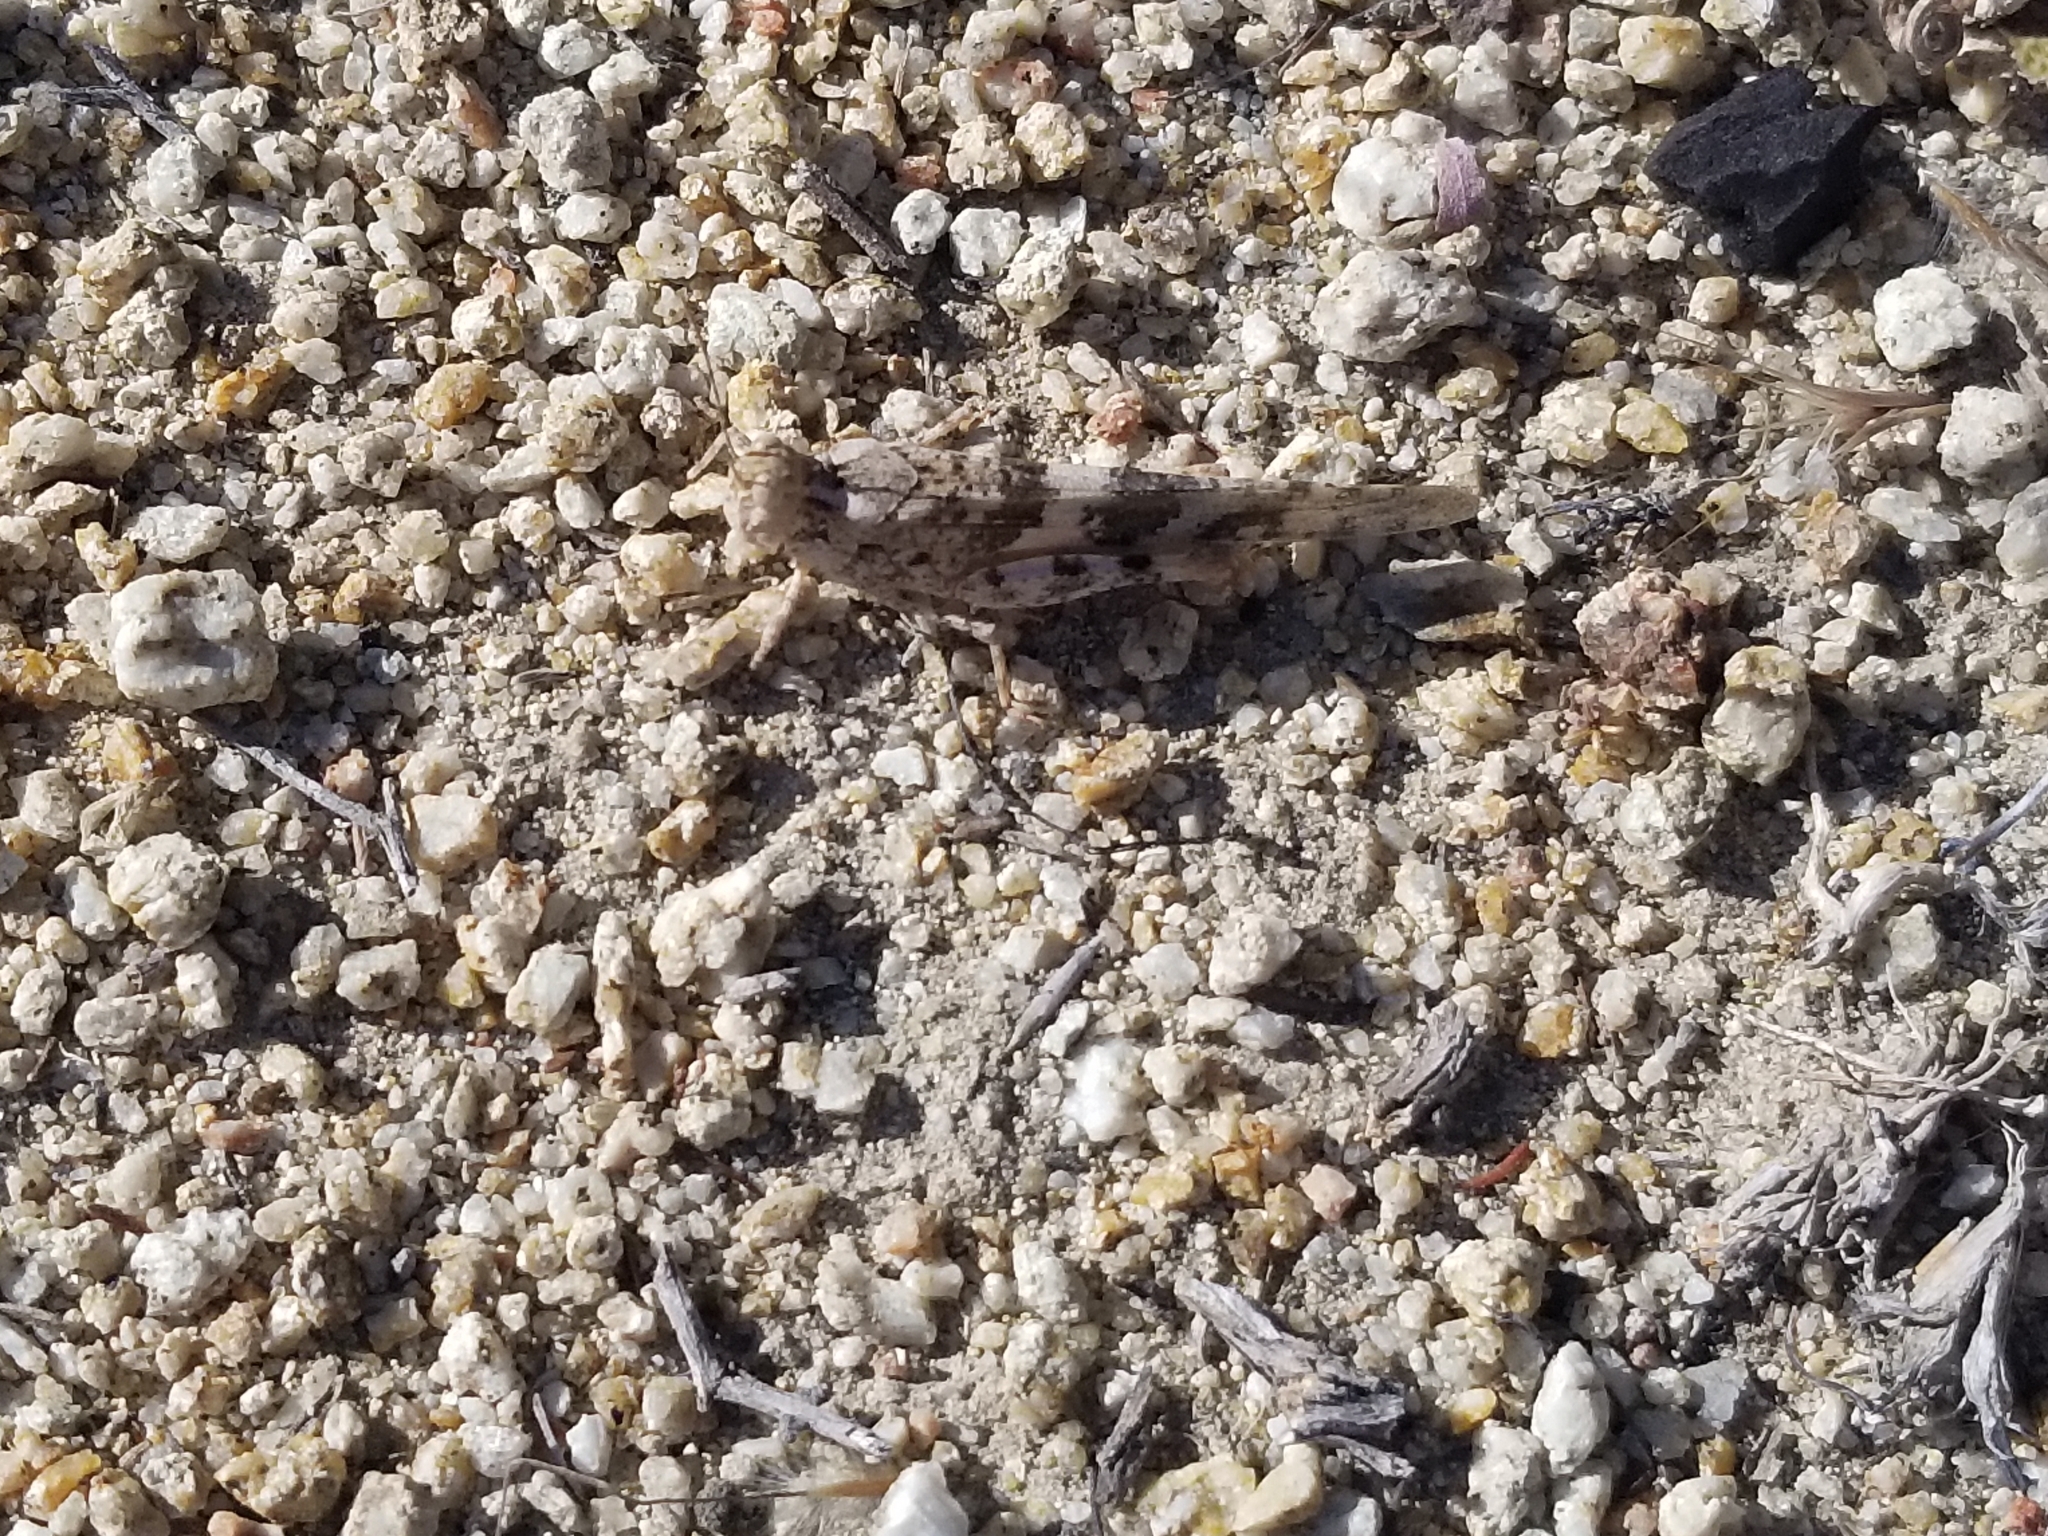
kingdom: Animalia
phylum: Arthropoda
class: Insecta
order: Orthoptera
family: Acrididae
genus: Trimerotropis
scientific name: Trimerotropis pallidipennis
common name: Pallid-winged grasshopper
